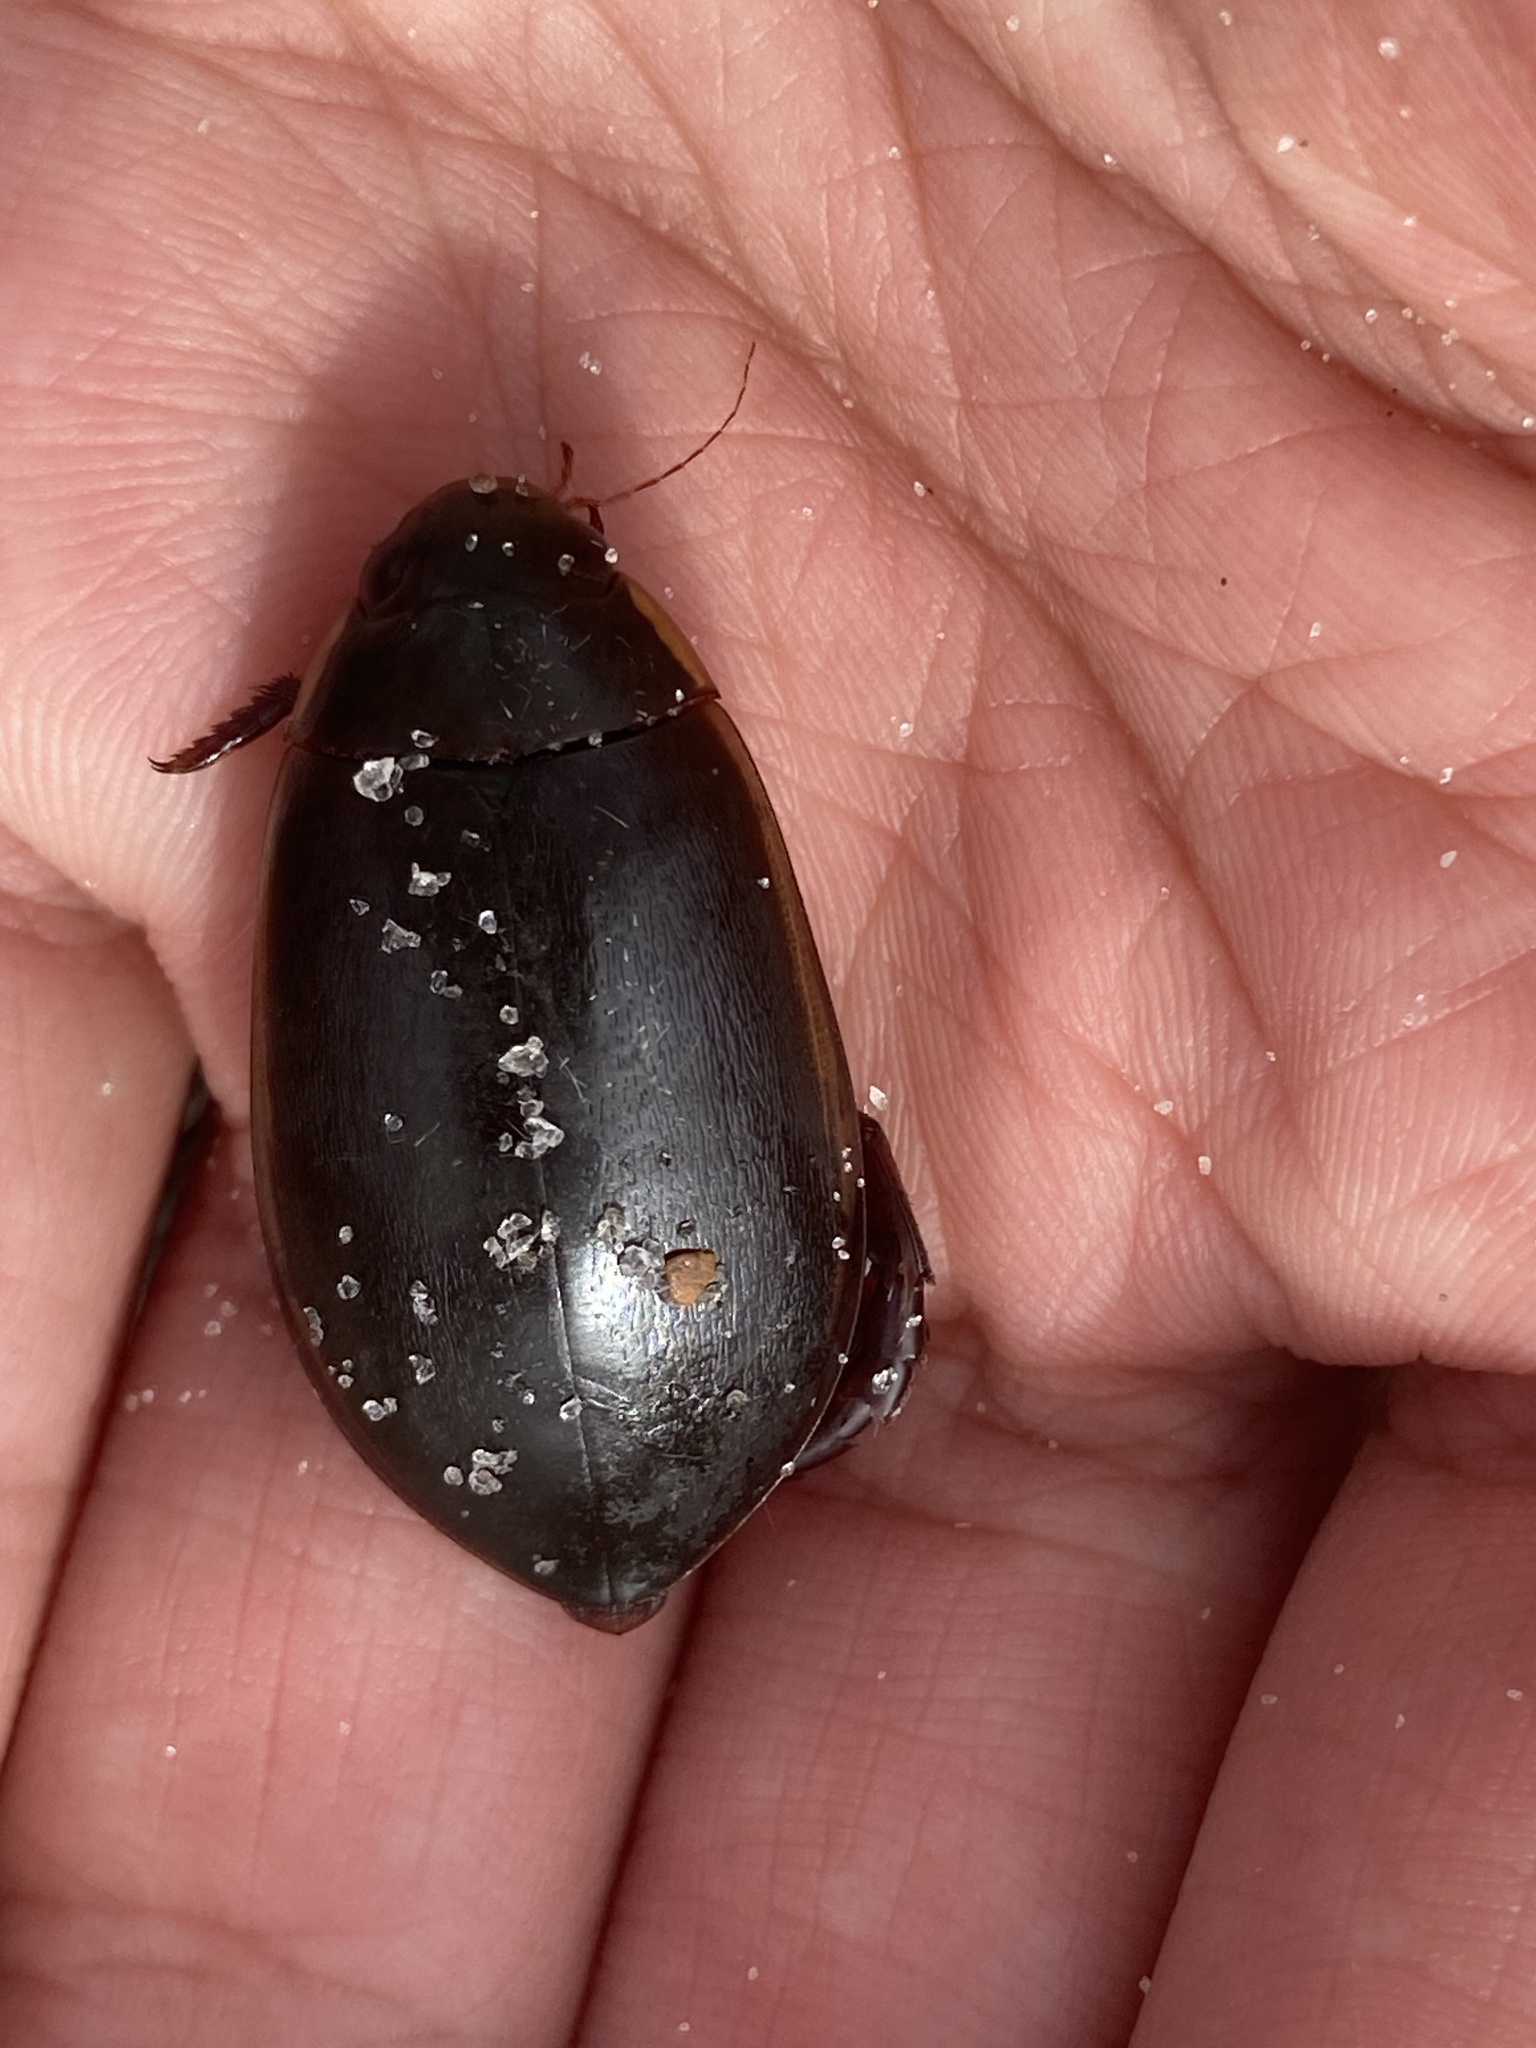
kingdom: Animalia
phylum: Arthropoda
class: Insecta
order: Coleoptera
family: Dytiscidae
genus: Cybister
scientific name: Cybister fimbriolatus
